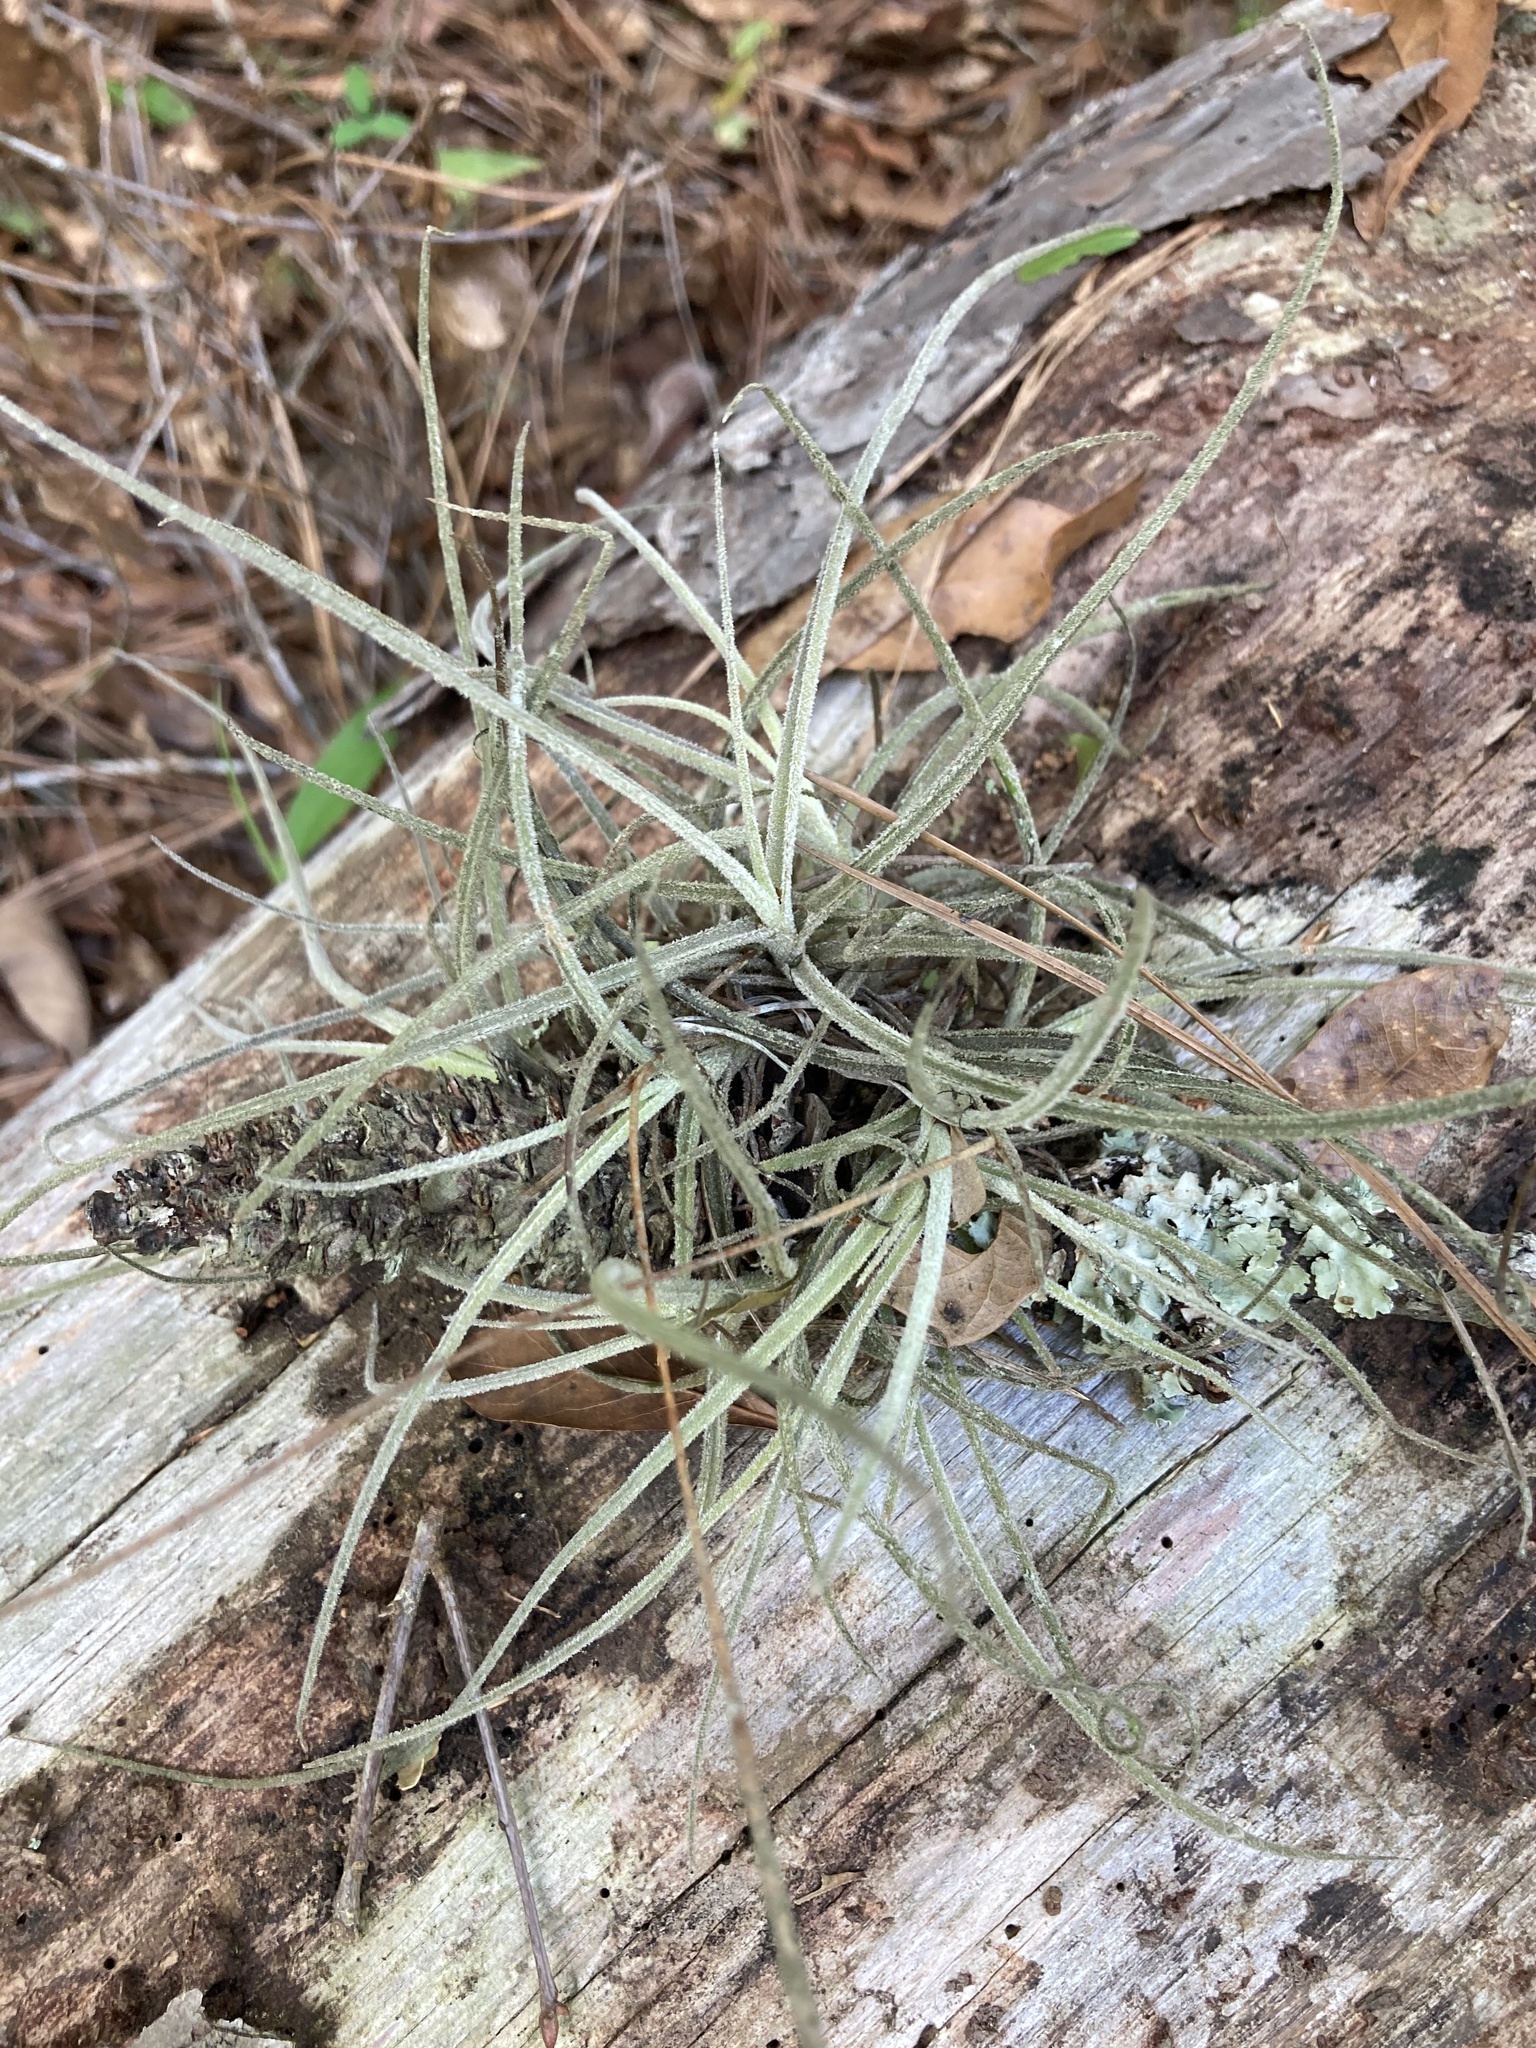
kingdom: Plantae
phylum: Tracheophyta
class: Liliopsida
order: Poales
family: Bromeliaceae
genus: Tillandsia
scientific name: Tillandsia recurvata
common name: Small ballmoss
